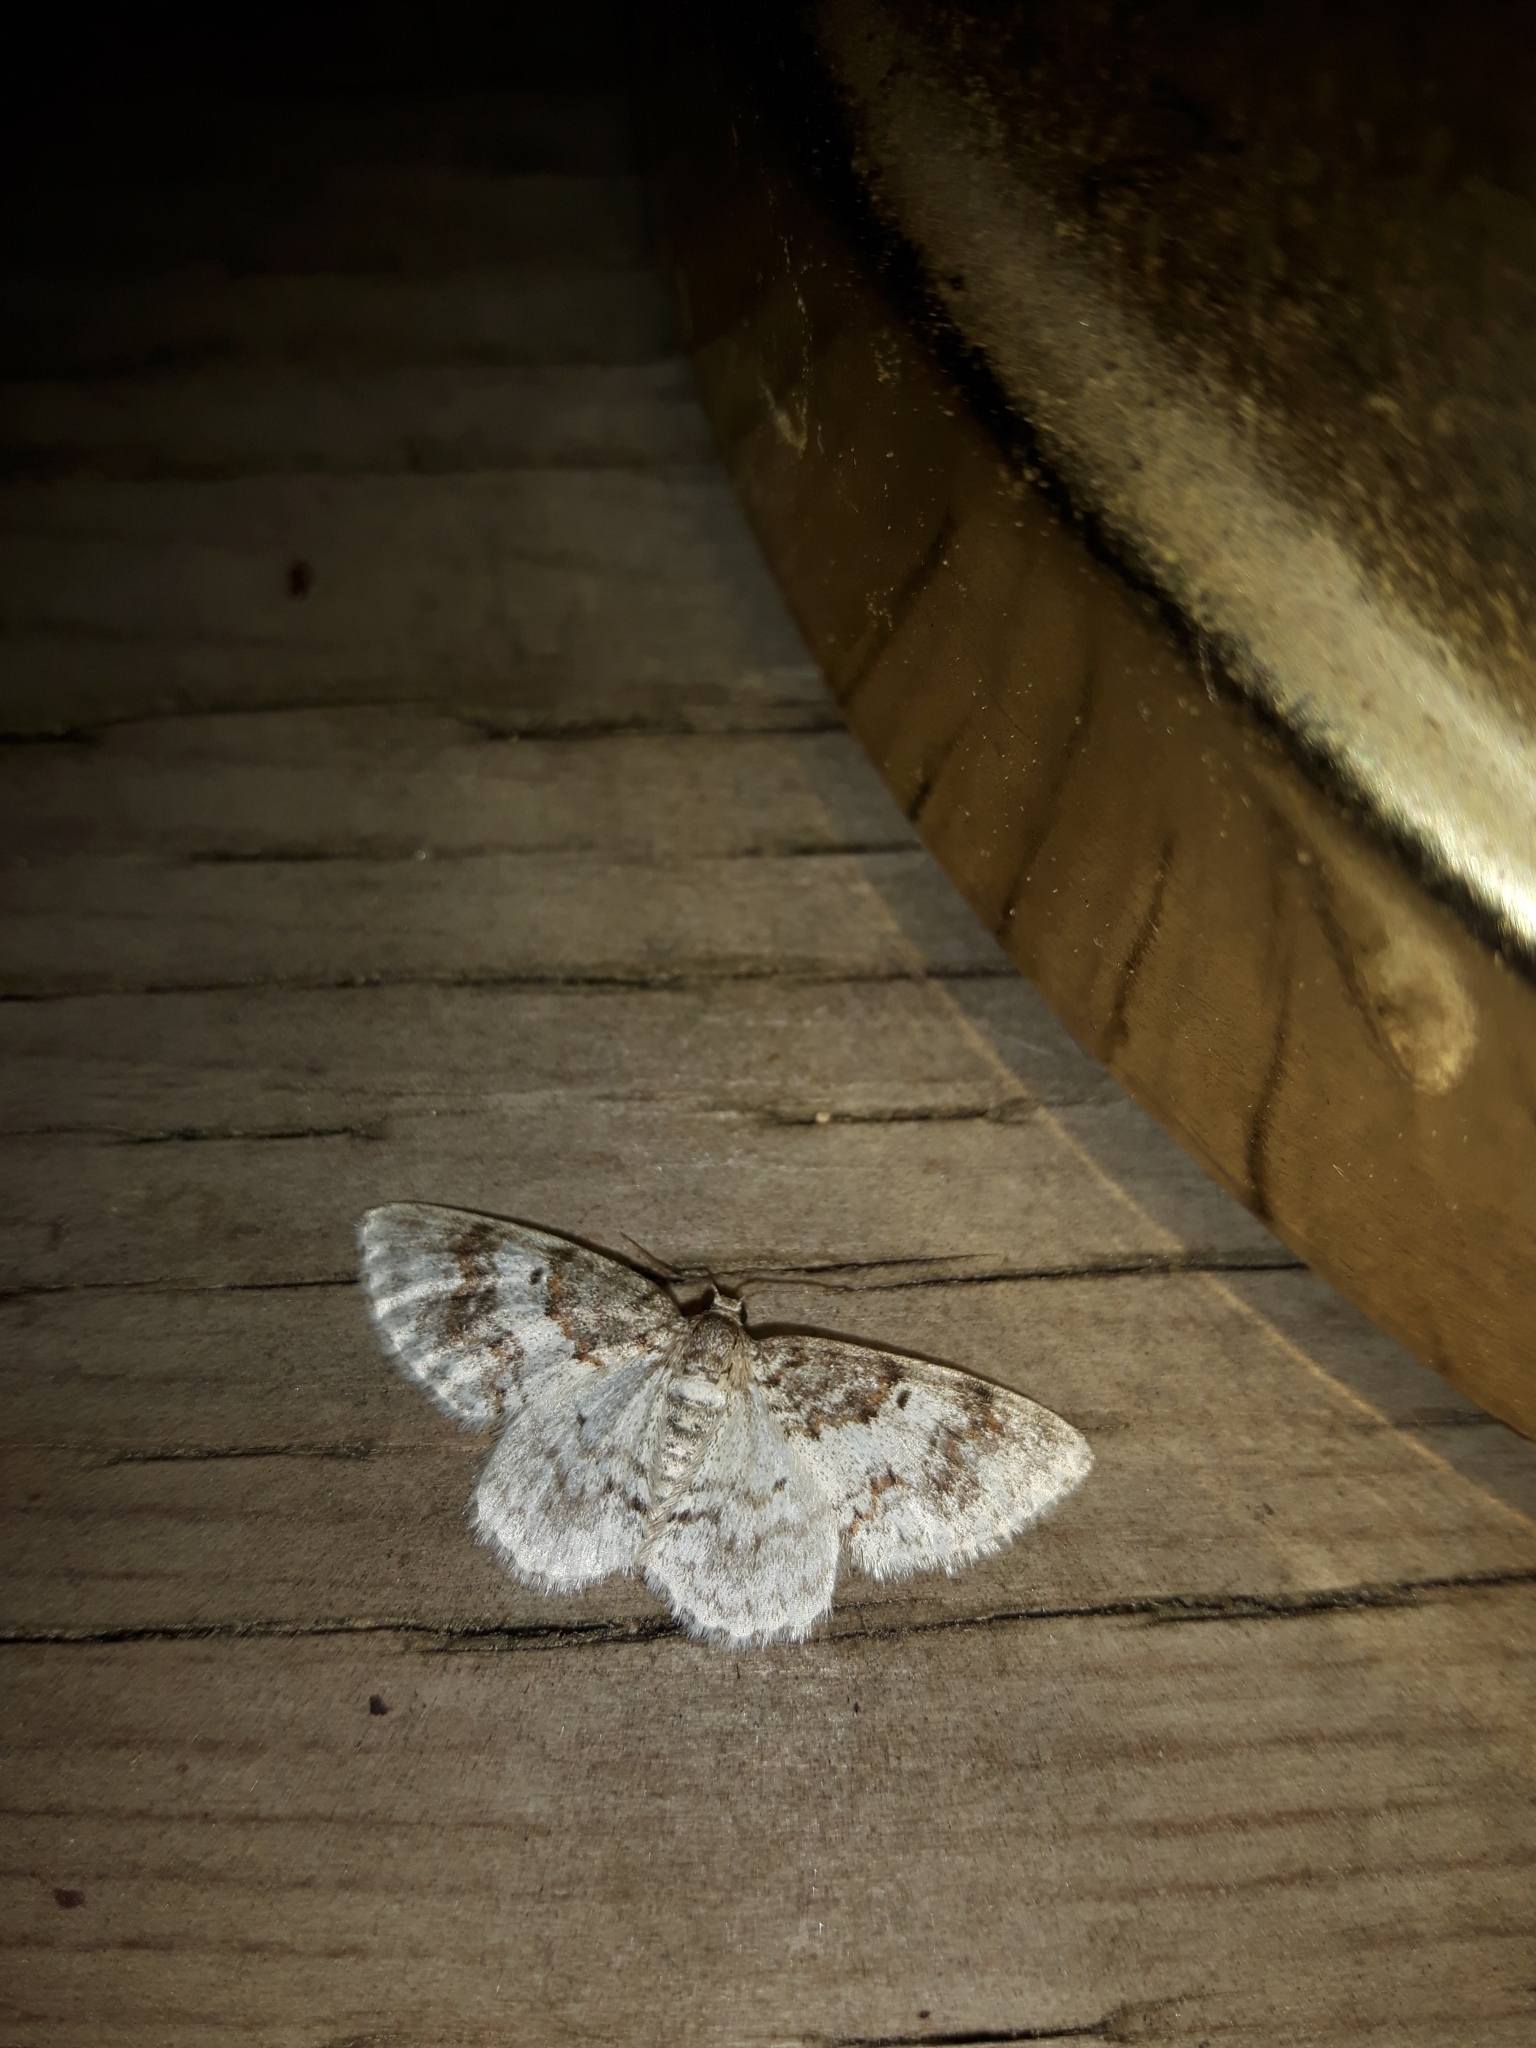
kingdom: Animalia
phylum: Arthropoda
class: Insecta
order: Lepidoptera
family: Geometridae
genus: Hydrelia
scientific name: Hydrelia inornata
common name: Unadorned carpet moth
